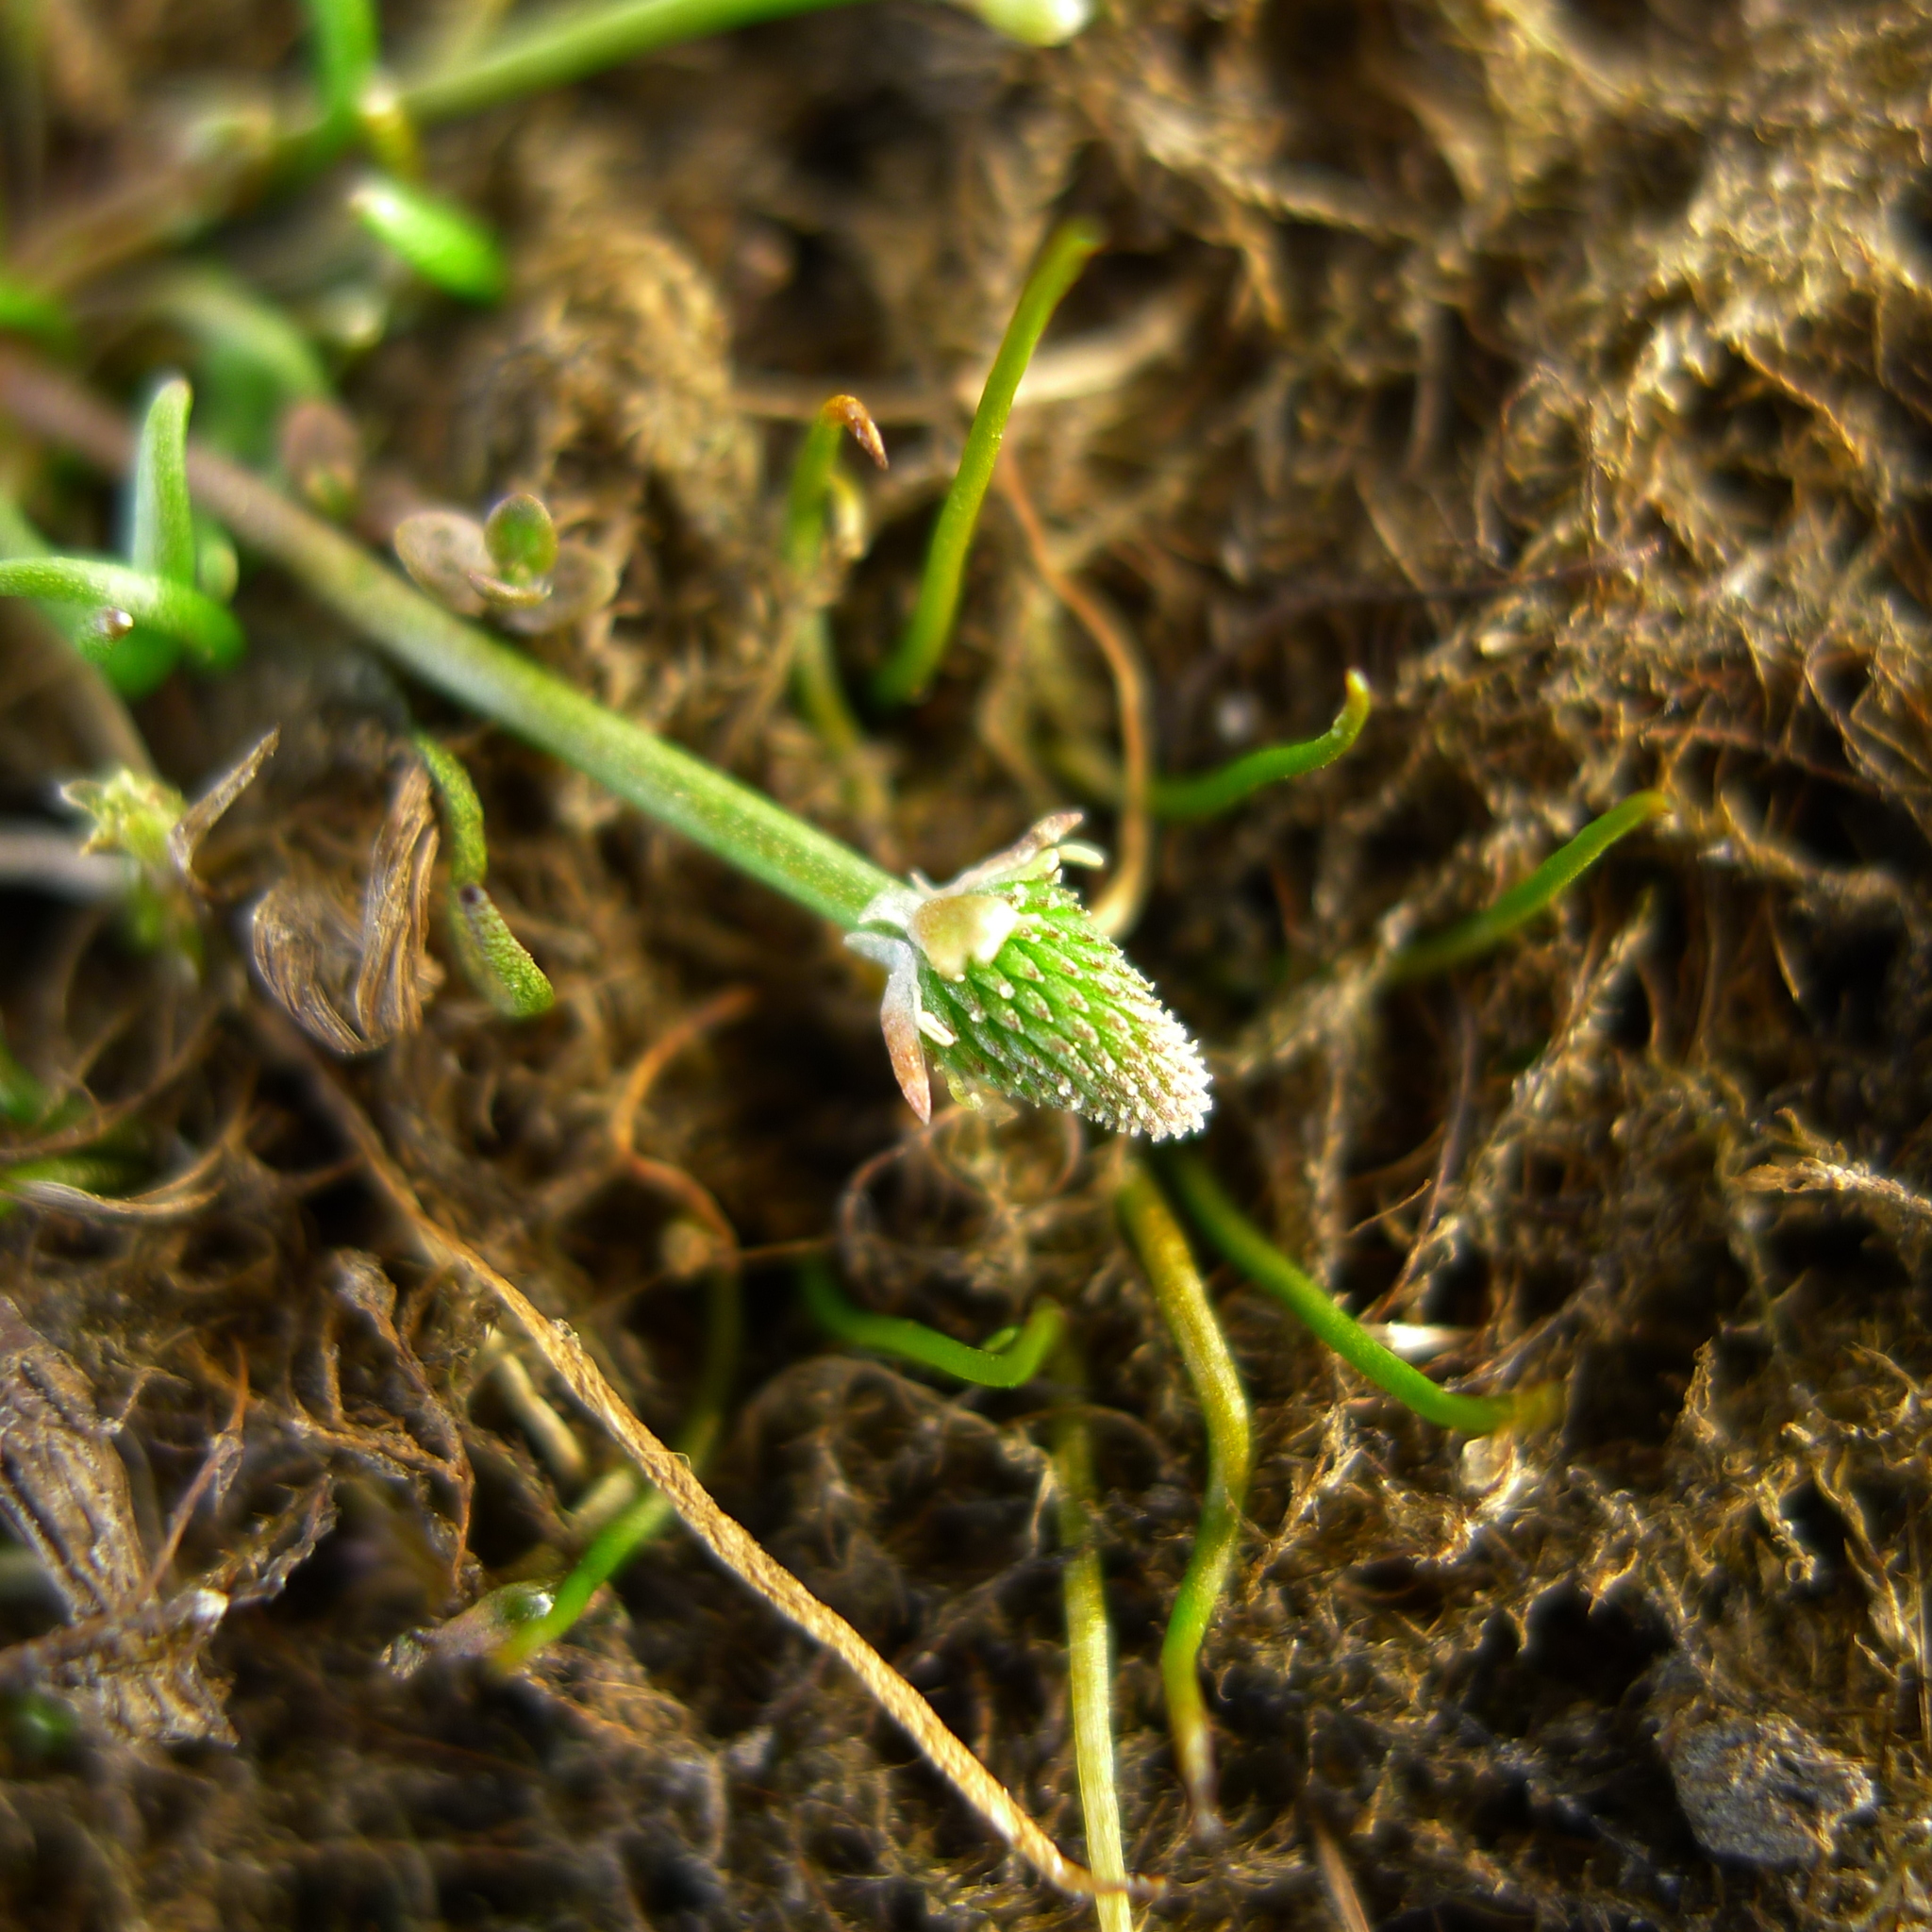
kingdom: Plantae
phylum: Tracheophyta
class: Magnoliopsida
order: Ranunculales
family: Ranunculaceae
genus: Myosurus
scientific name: Myosurus minimus
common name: Mousetail
